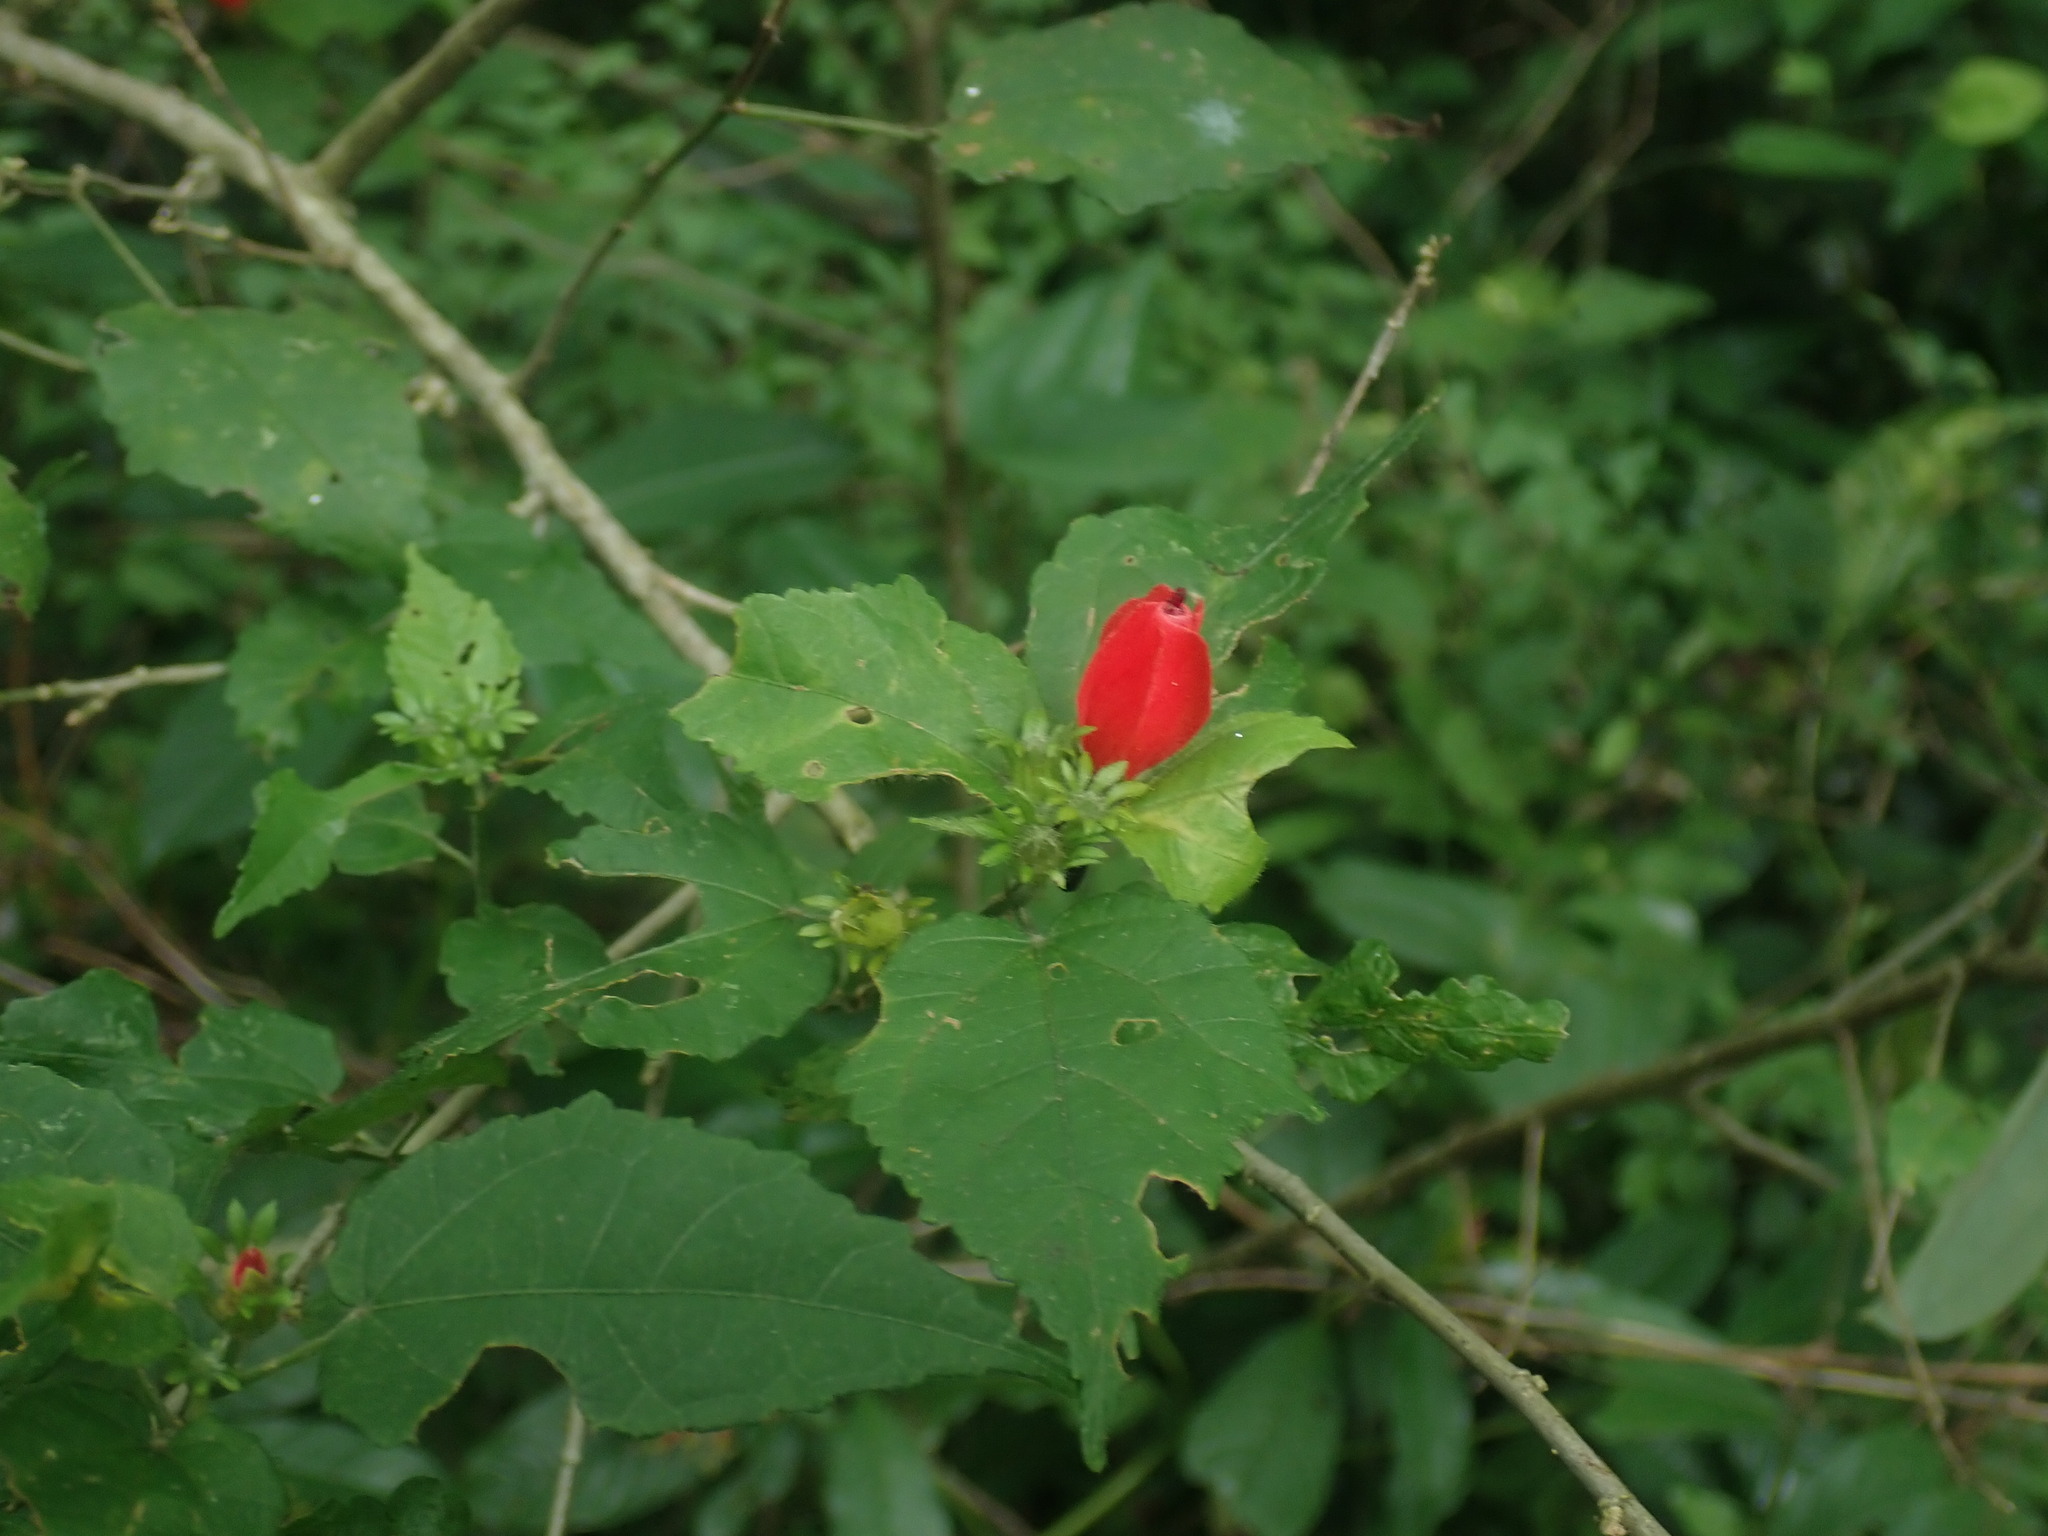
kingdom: Plantae
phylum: Tracheophyta
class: Magnoliopsida
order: Malvales
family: Malvaceae
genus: Malvaviscus
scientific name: Malvaviscus arboreus
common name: Wax mallow
